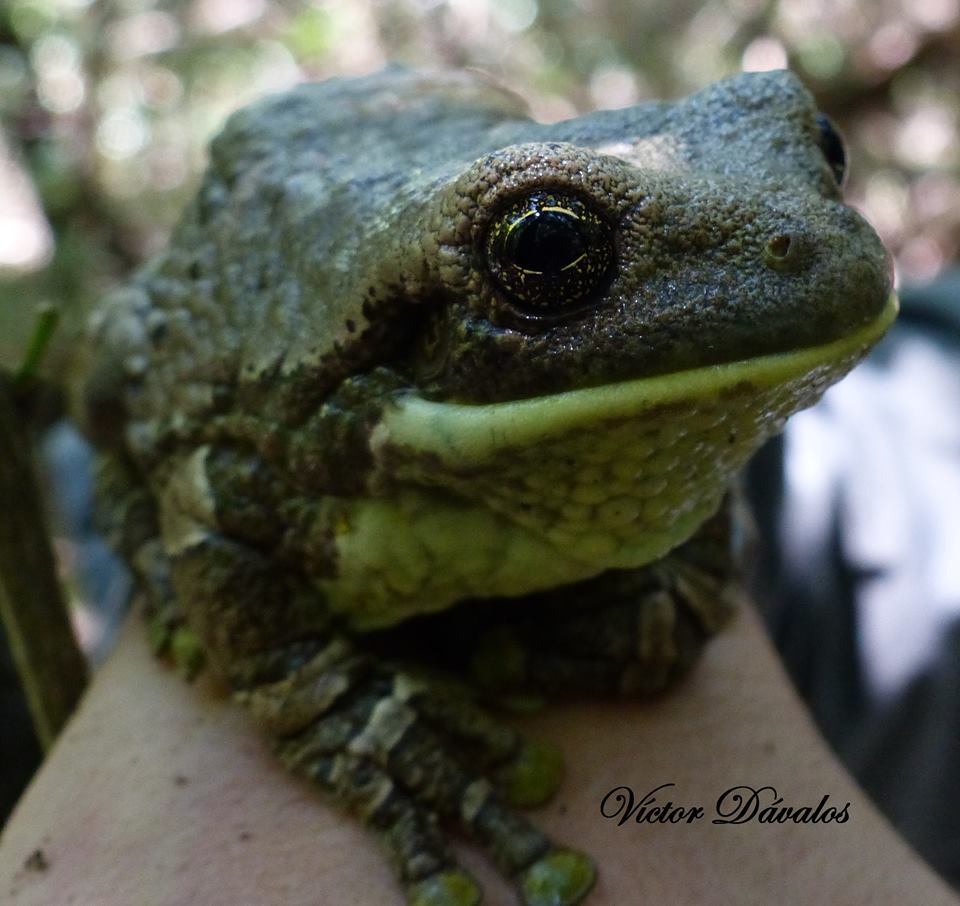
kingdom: Animalia
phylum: Chordata
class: Amphibia
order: Anura
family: Hylidae
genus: Trachycephalus
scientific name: Trachycephalus typhonius
